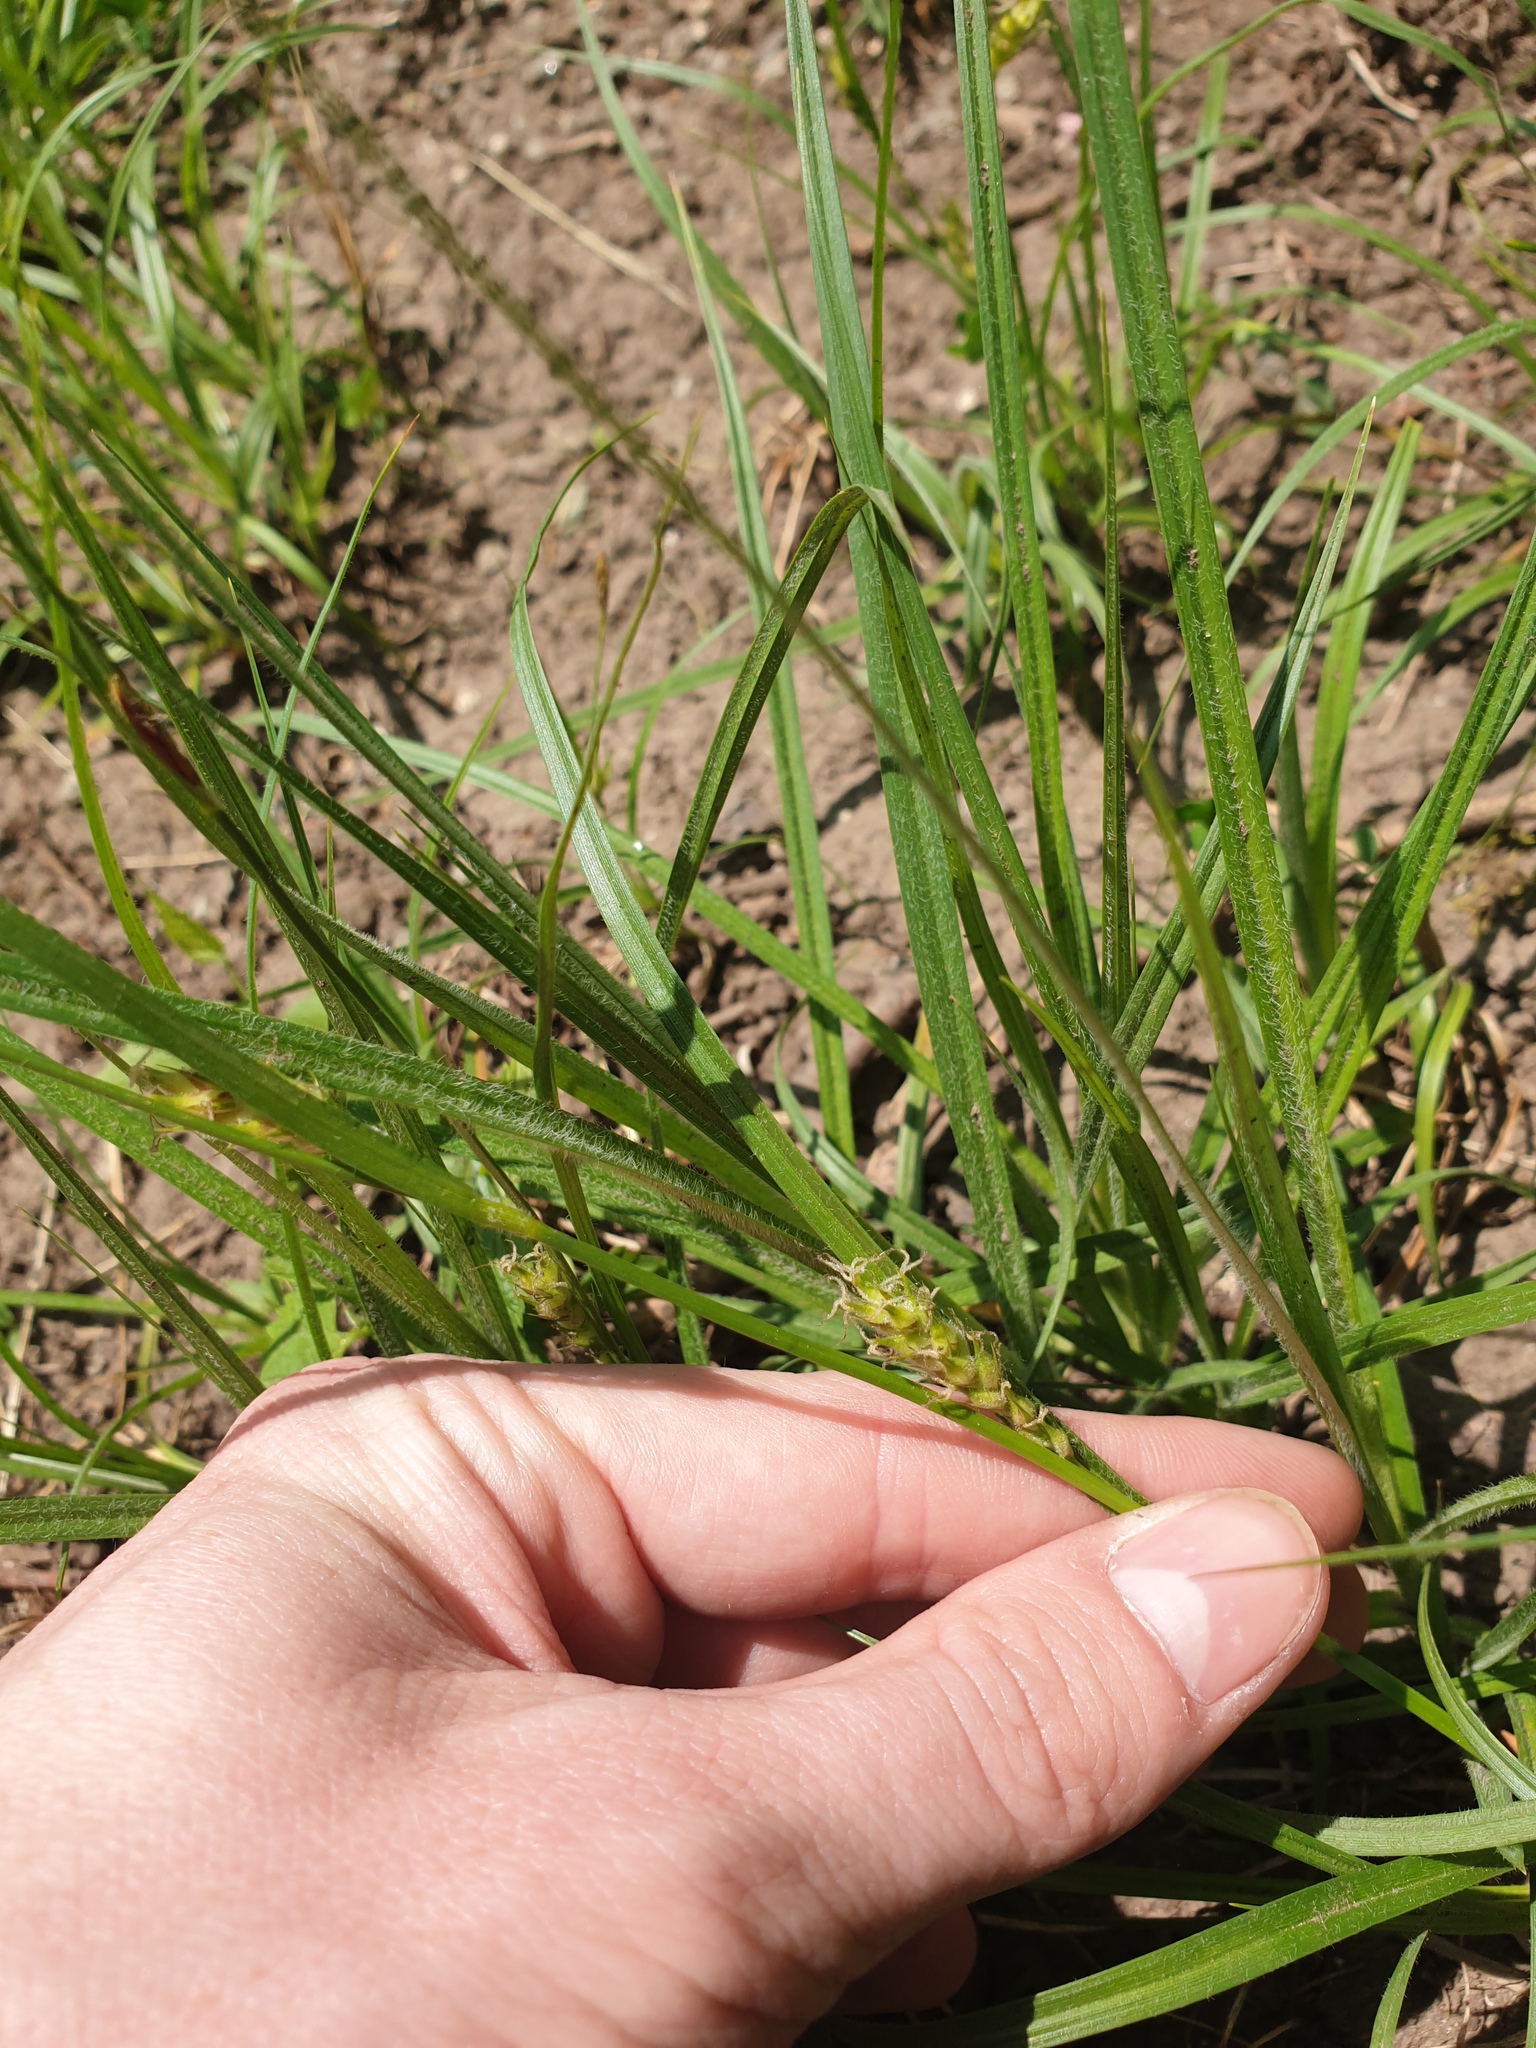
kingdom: Plantae
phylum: Tracheophyta
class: Liliopsida
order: Poales
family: Cyperaceae
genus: Carex
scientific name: Carex hirta
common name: Hairy sedge
